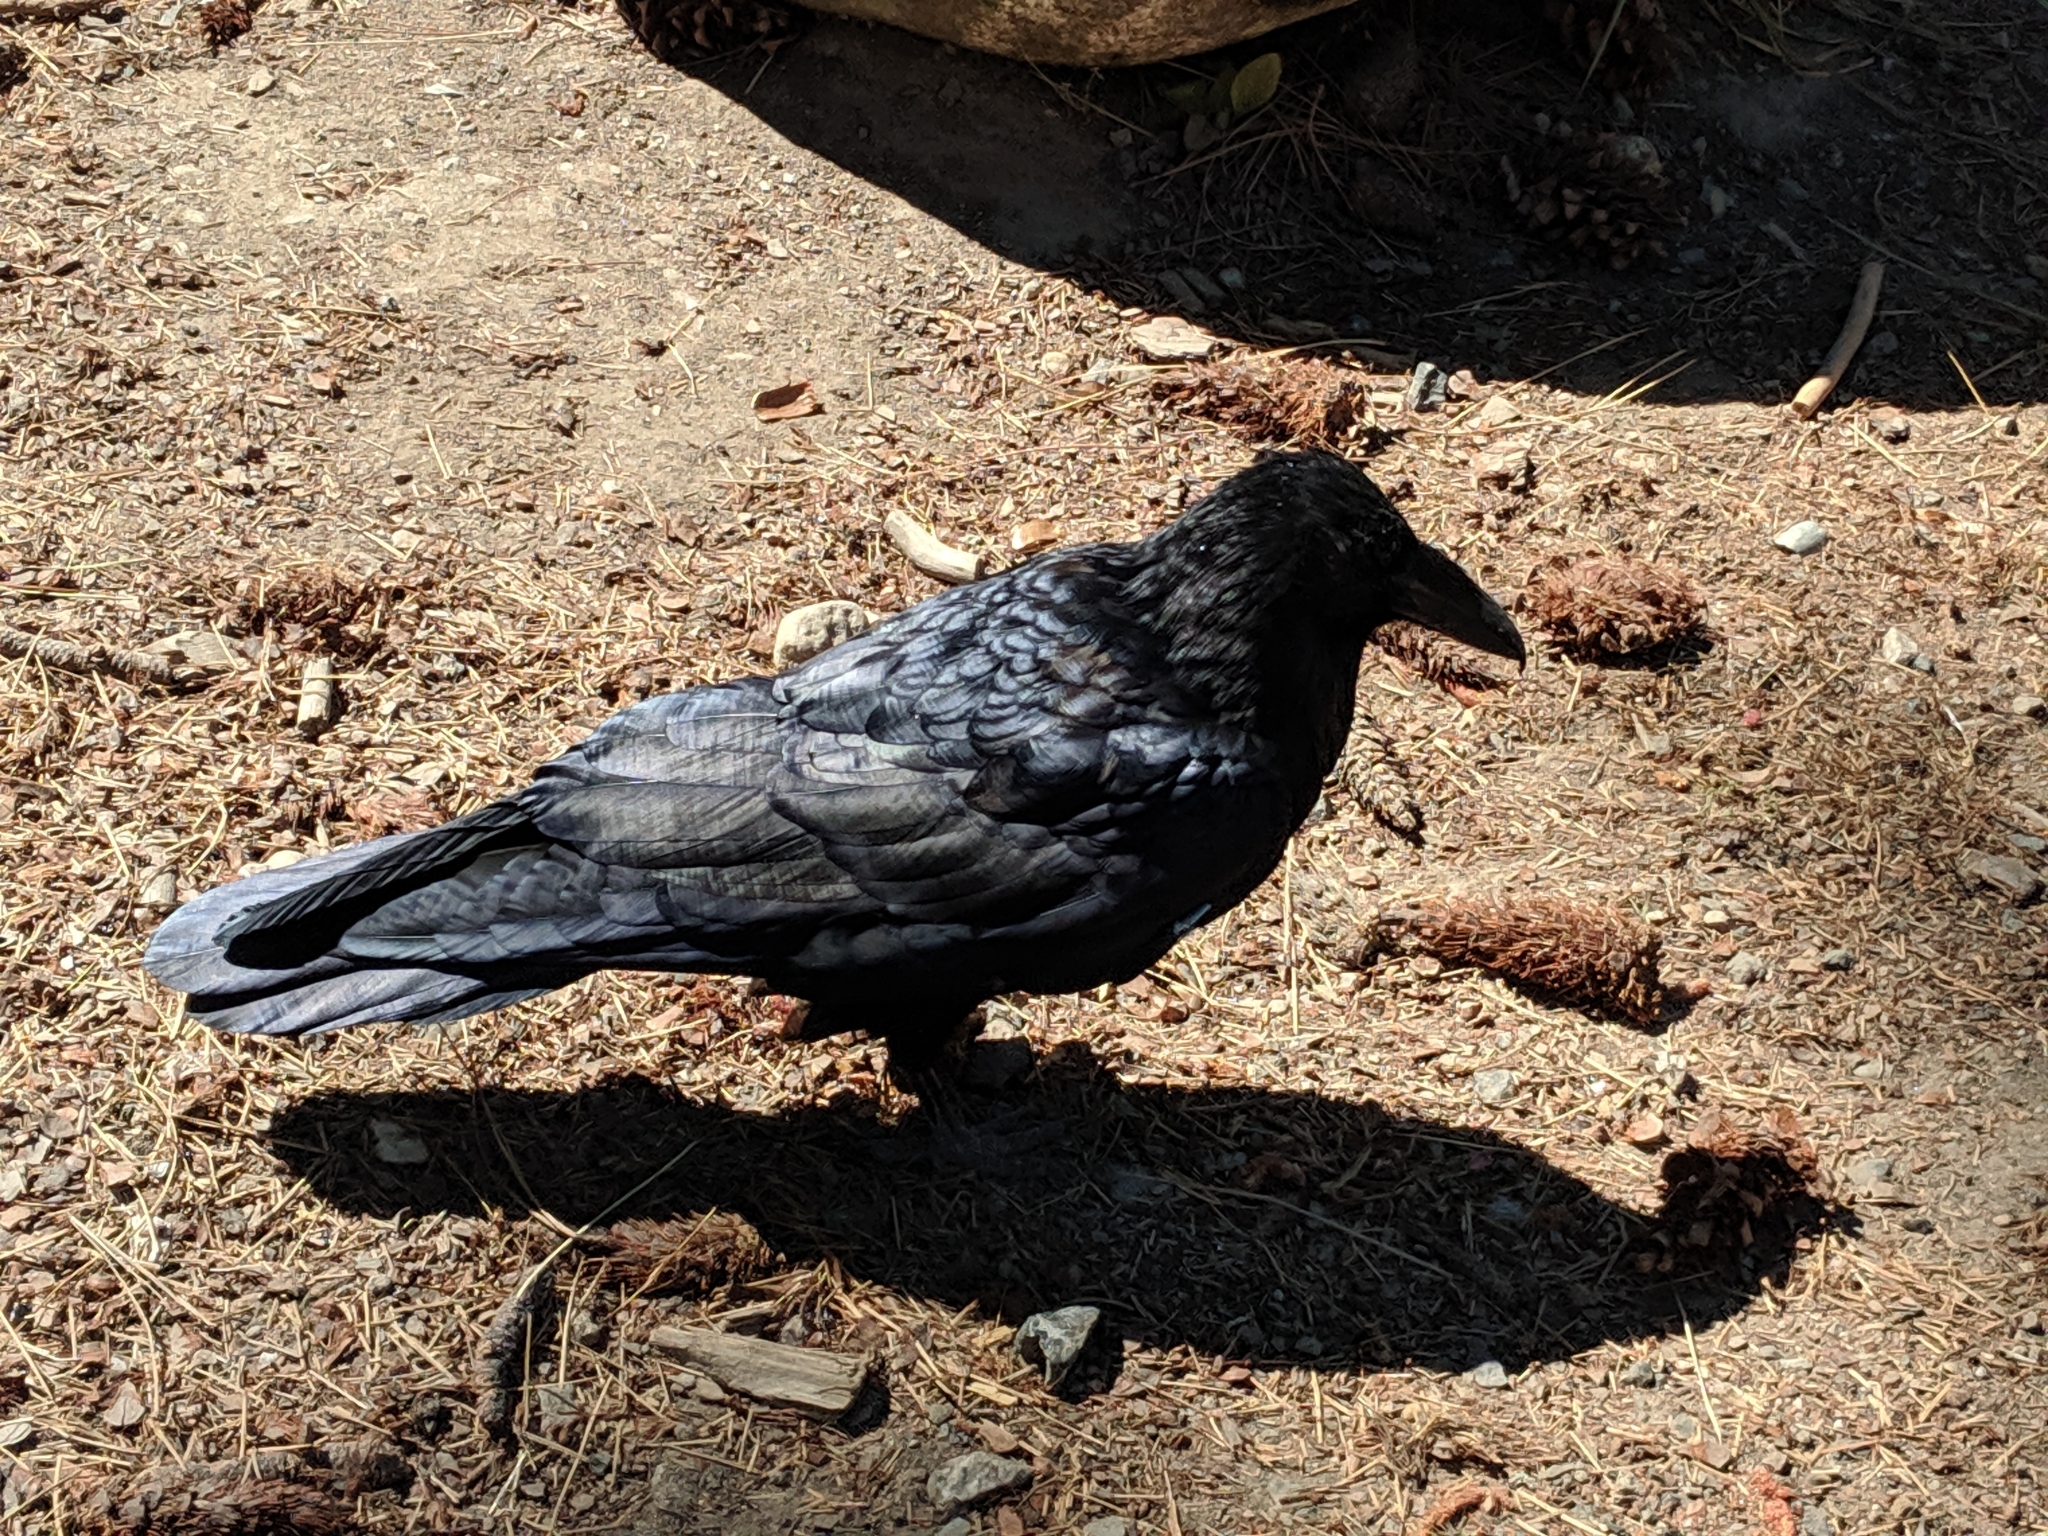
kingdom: Animalia
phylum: Chordata
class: Aves
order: Passeriformes
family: Corvidae
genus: Corvus
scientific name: Corvus corax
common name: Common raven
